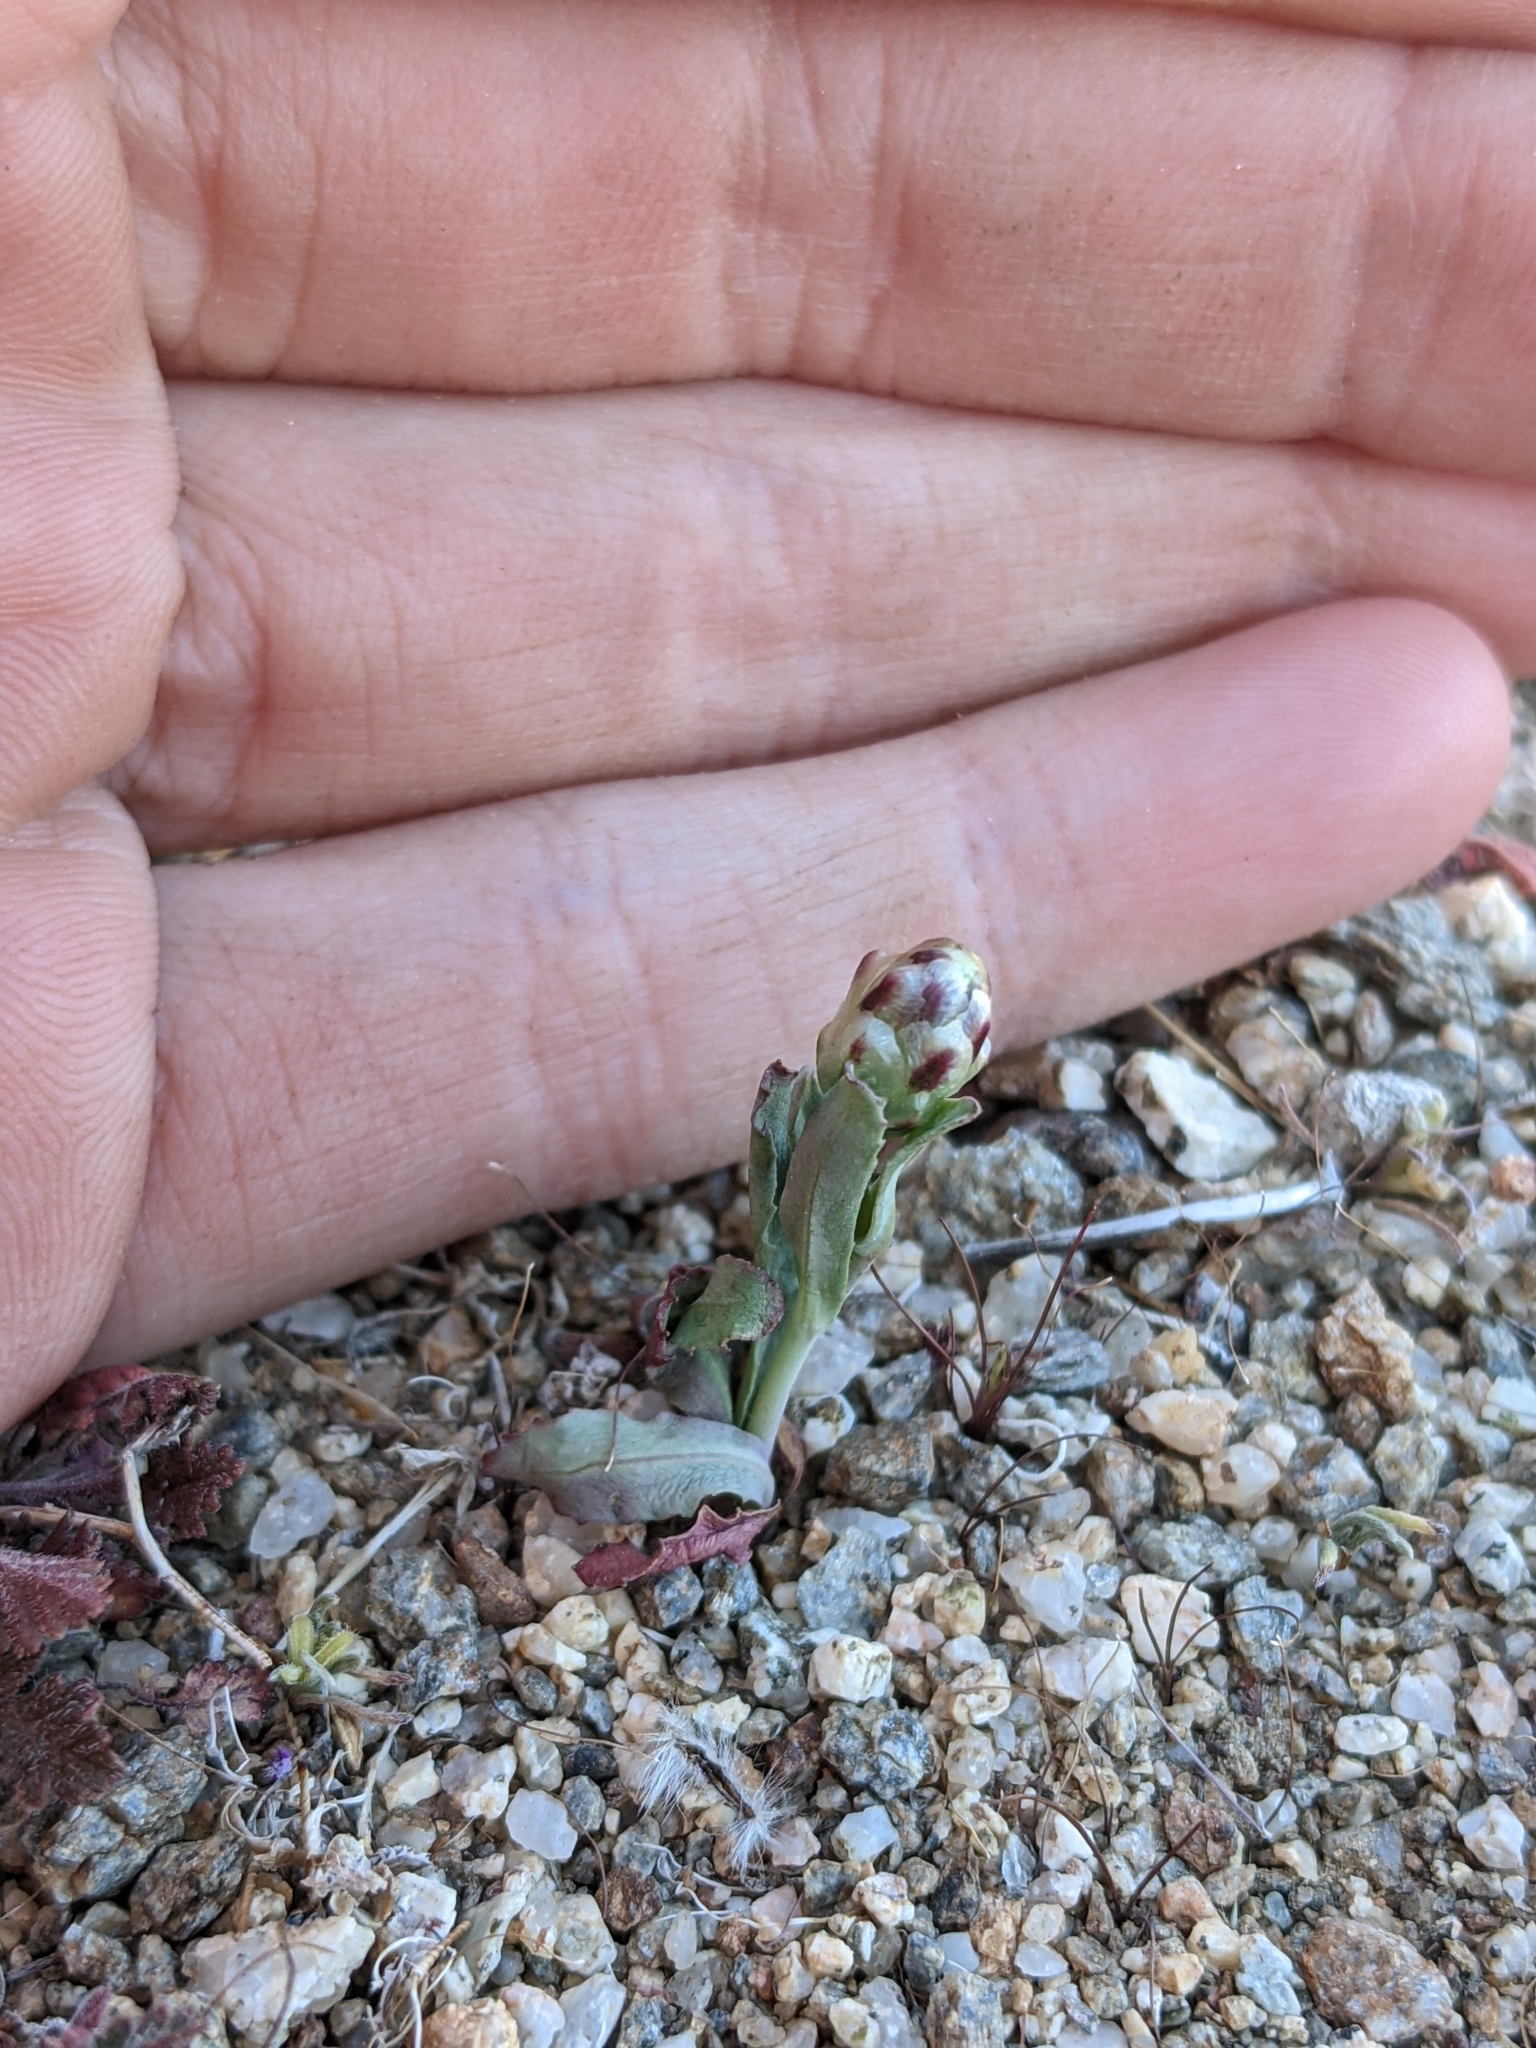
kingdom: Plantae
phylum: Tracheophyta
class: Magnoliopsida
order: Asterales
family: Asteraceae
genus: Malacothrix
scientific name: Malacothrix coulteri
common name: Snake's-head
